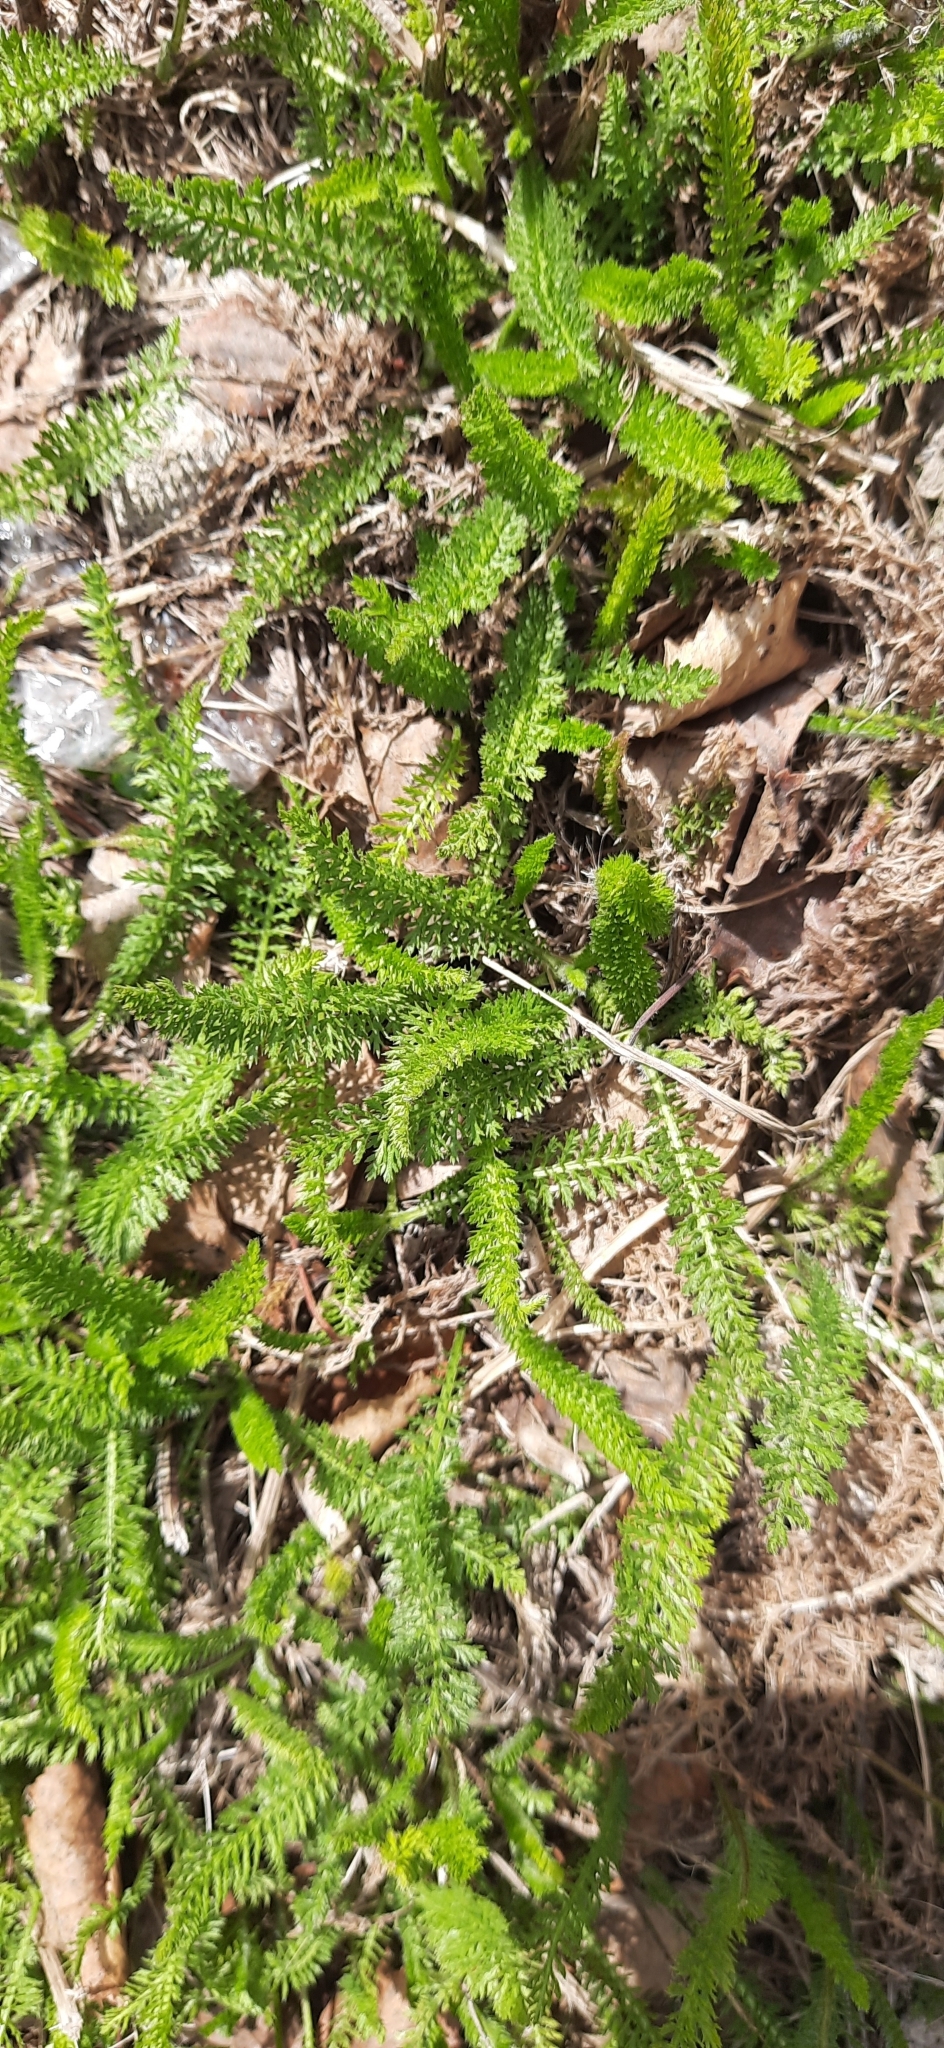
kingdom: Plantae
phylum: Tracheophyta
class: Magnoliopsida
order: Asterales
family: Asteraceae
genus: Achillea
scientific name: Achillea millefolium
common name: Yarrow
